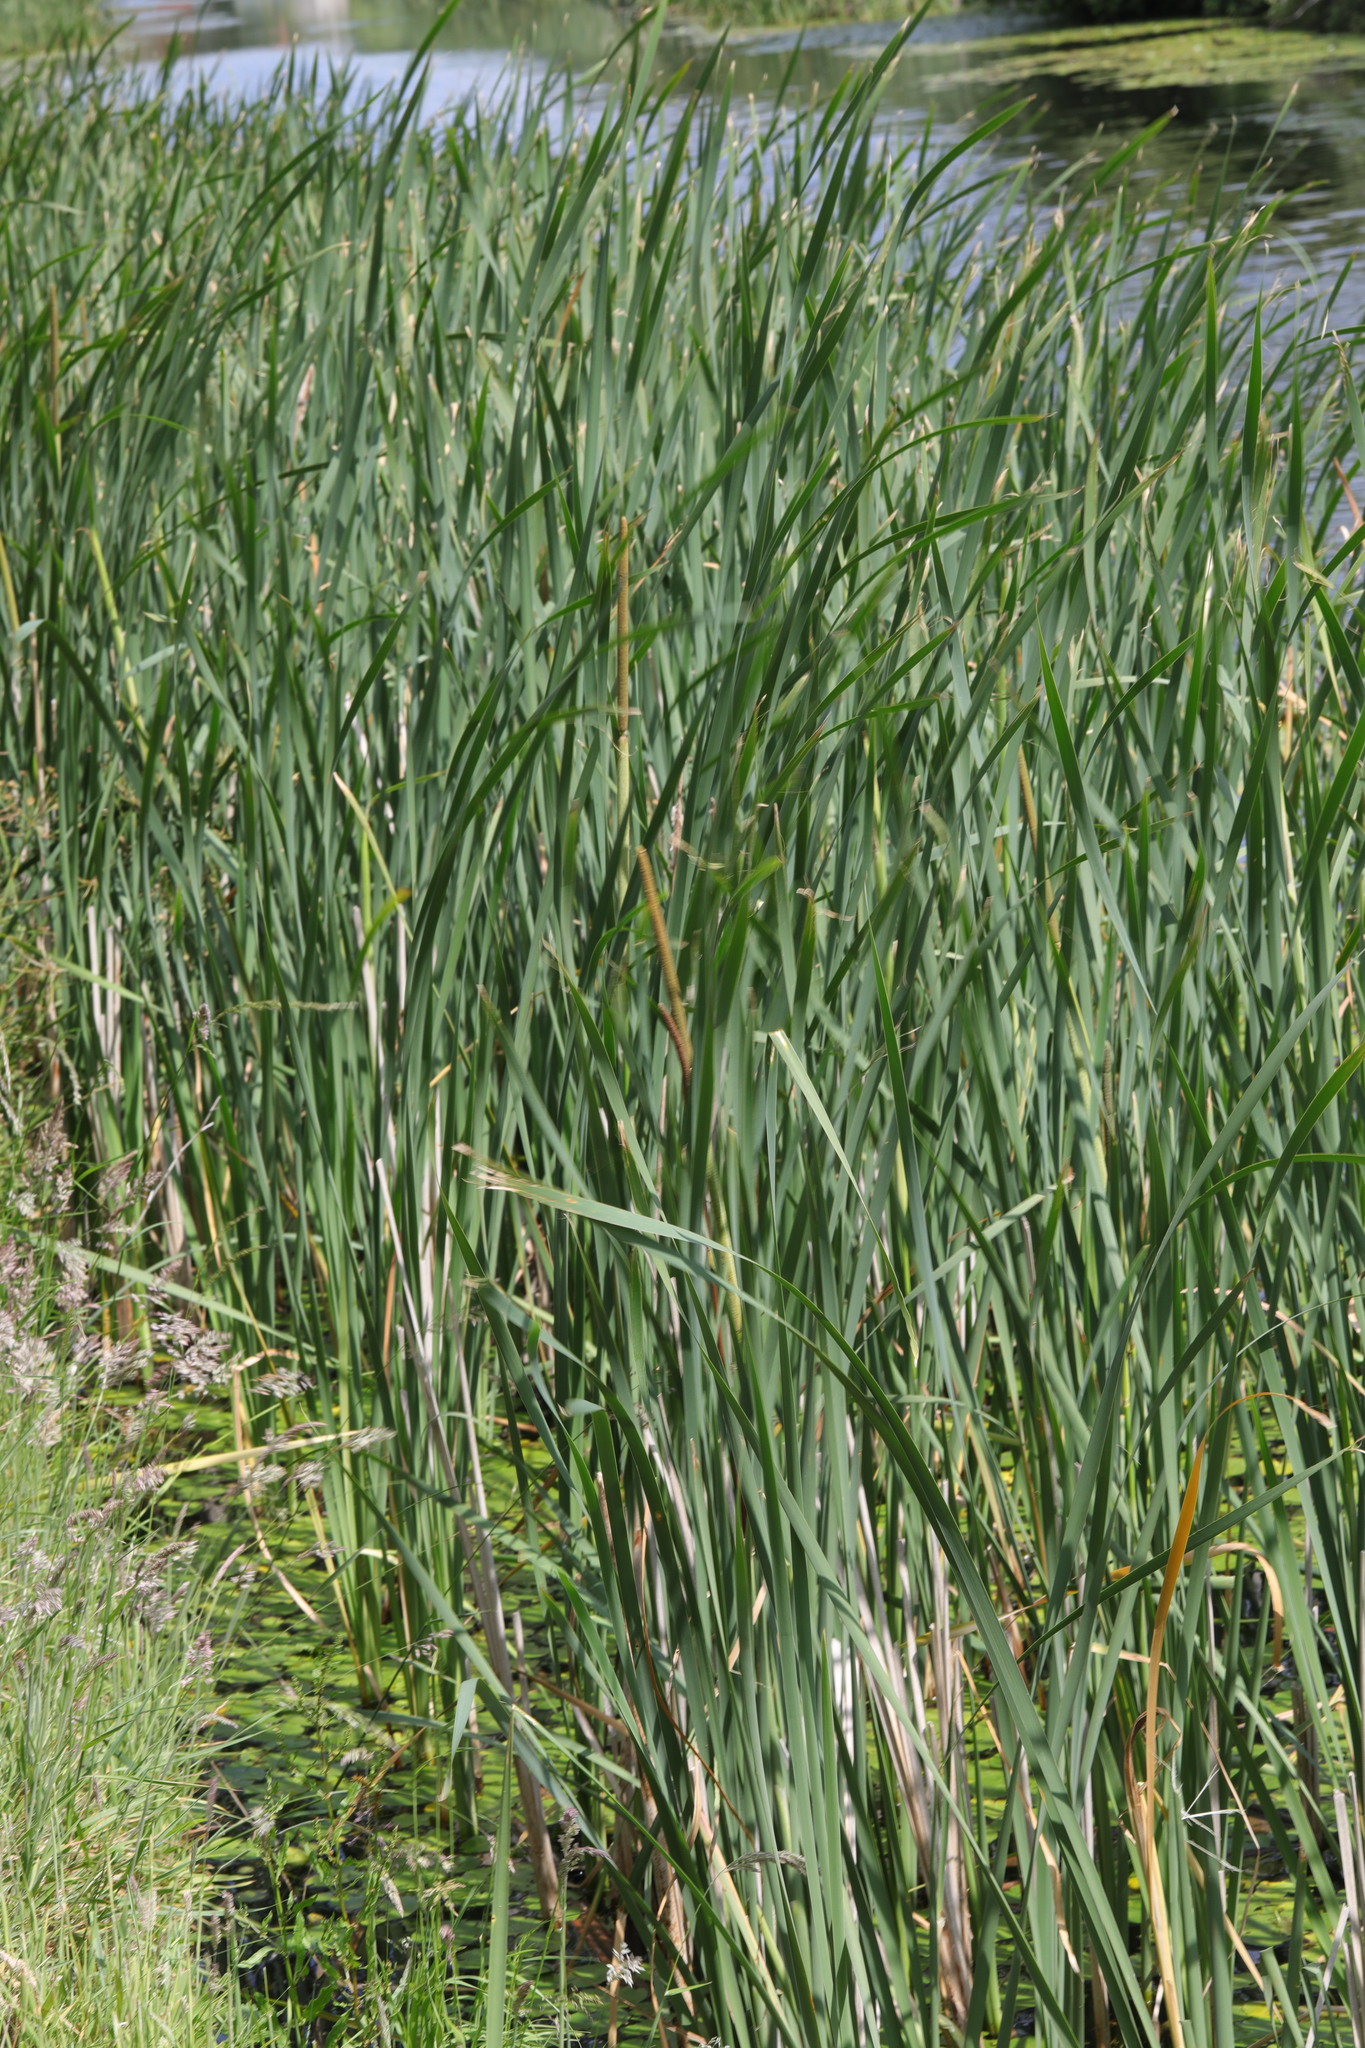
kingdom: Plantae
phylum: Tracheophyta
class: Liliopsida
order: Poales
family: Typhaceae
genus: Typha
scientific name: Typha latifolia
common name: Broadleaf cattail
